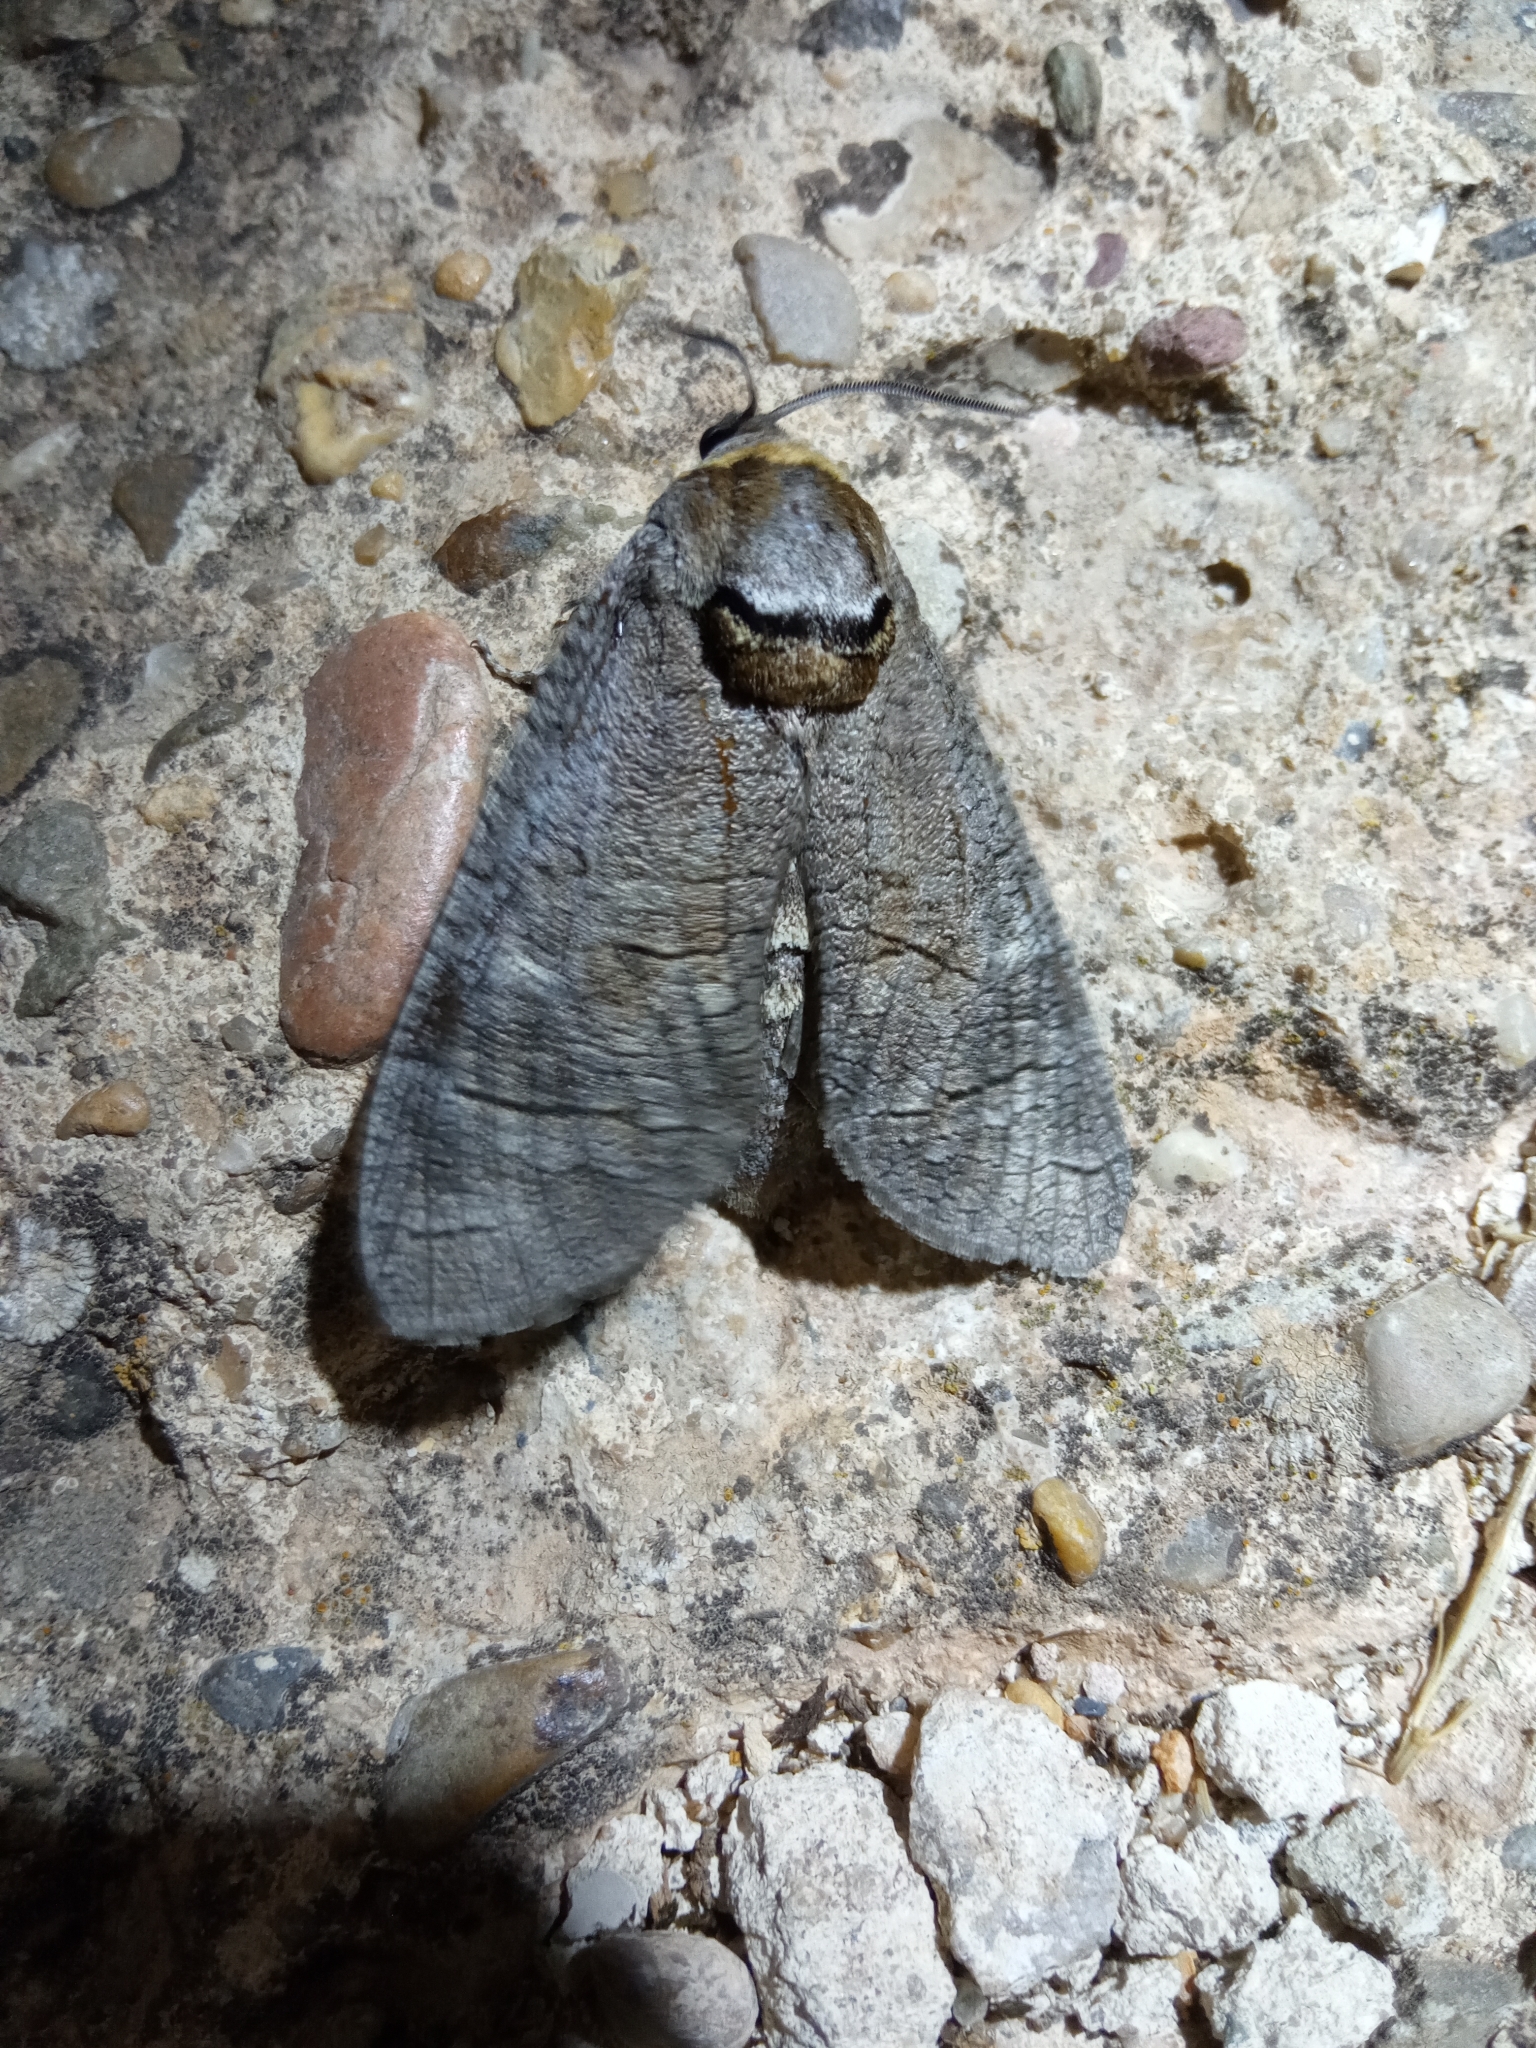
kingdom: Animalia
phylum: Arthropoda
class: Insecta
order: Lepidoptera
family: Cossidae
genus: Cossus
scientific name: Cossus cossus
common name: Goat moth
